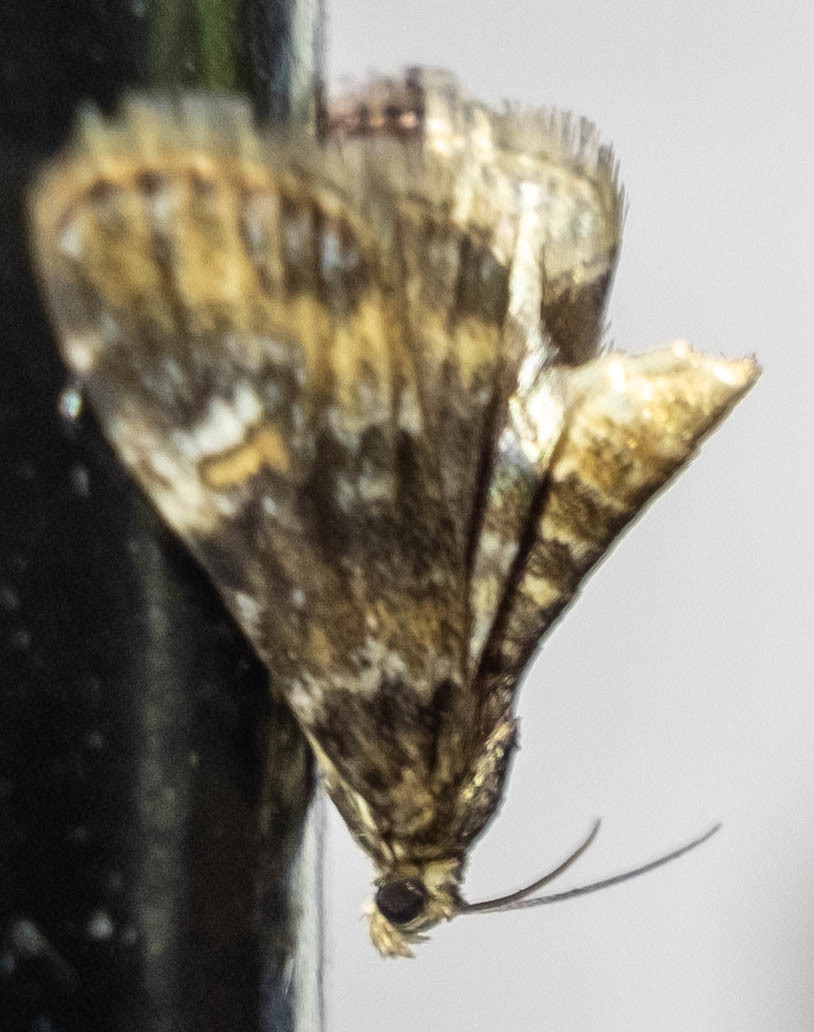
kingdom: Animalia
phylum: Arthropoda
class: Insecta
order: Lepidoptera
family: Crambidae
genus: Elophila
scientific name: Elophila obliteralis
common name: Waterlily leafcutter moth
